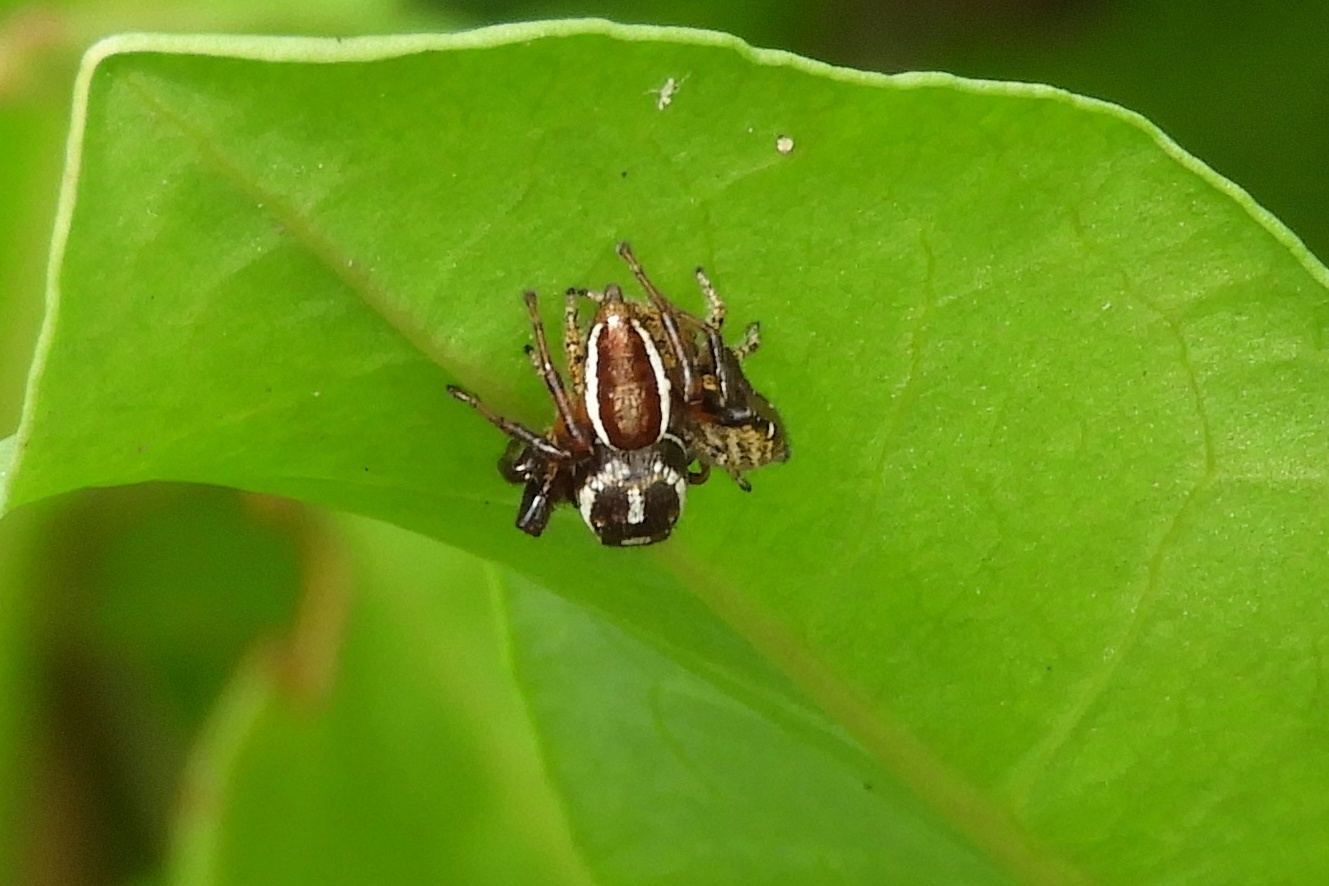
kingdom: Animalia
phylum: Arthropoda
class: Arachnida
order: Araneae
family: Salticidae
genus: Eris
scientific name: Eris militaris
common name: Bronze jumper
